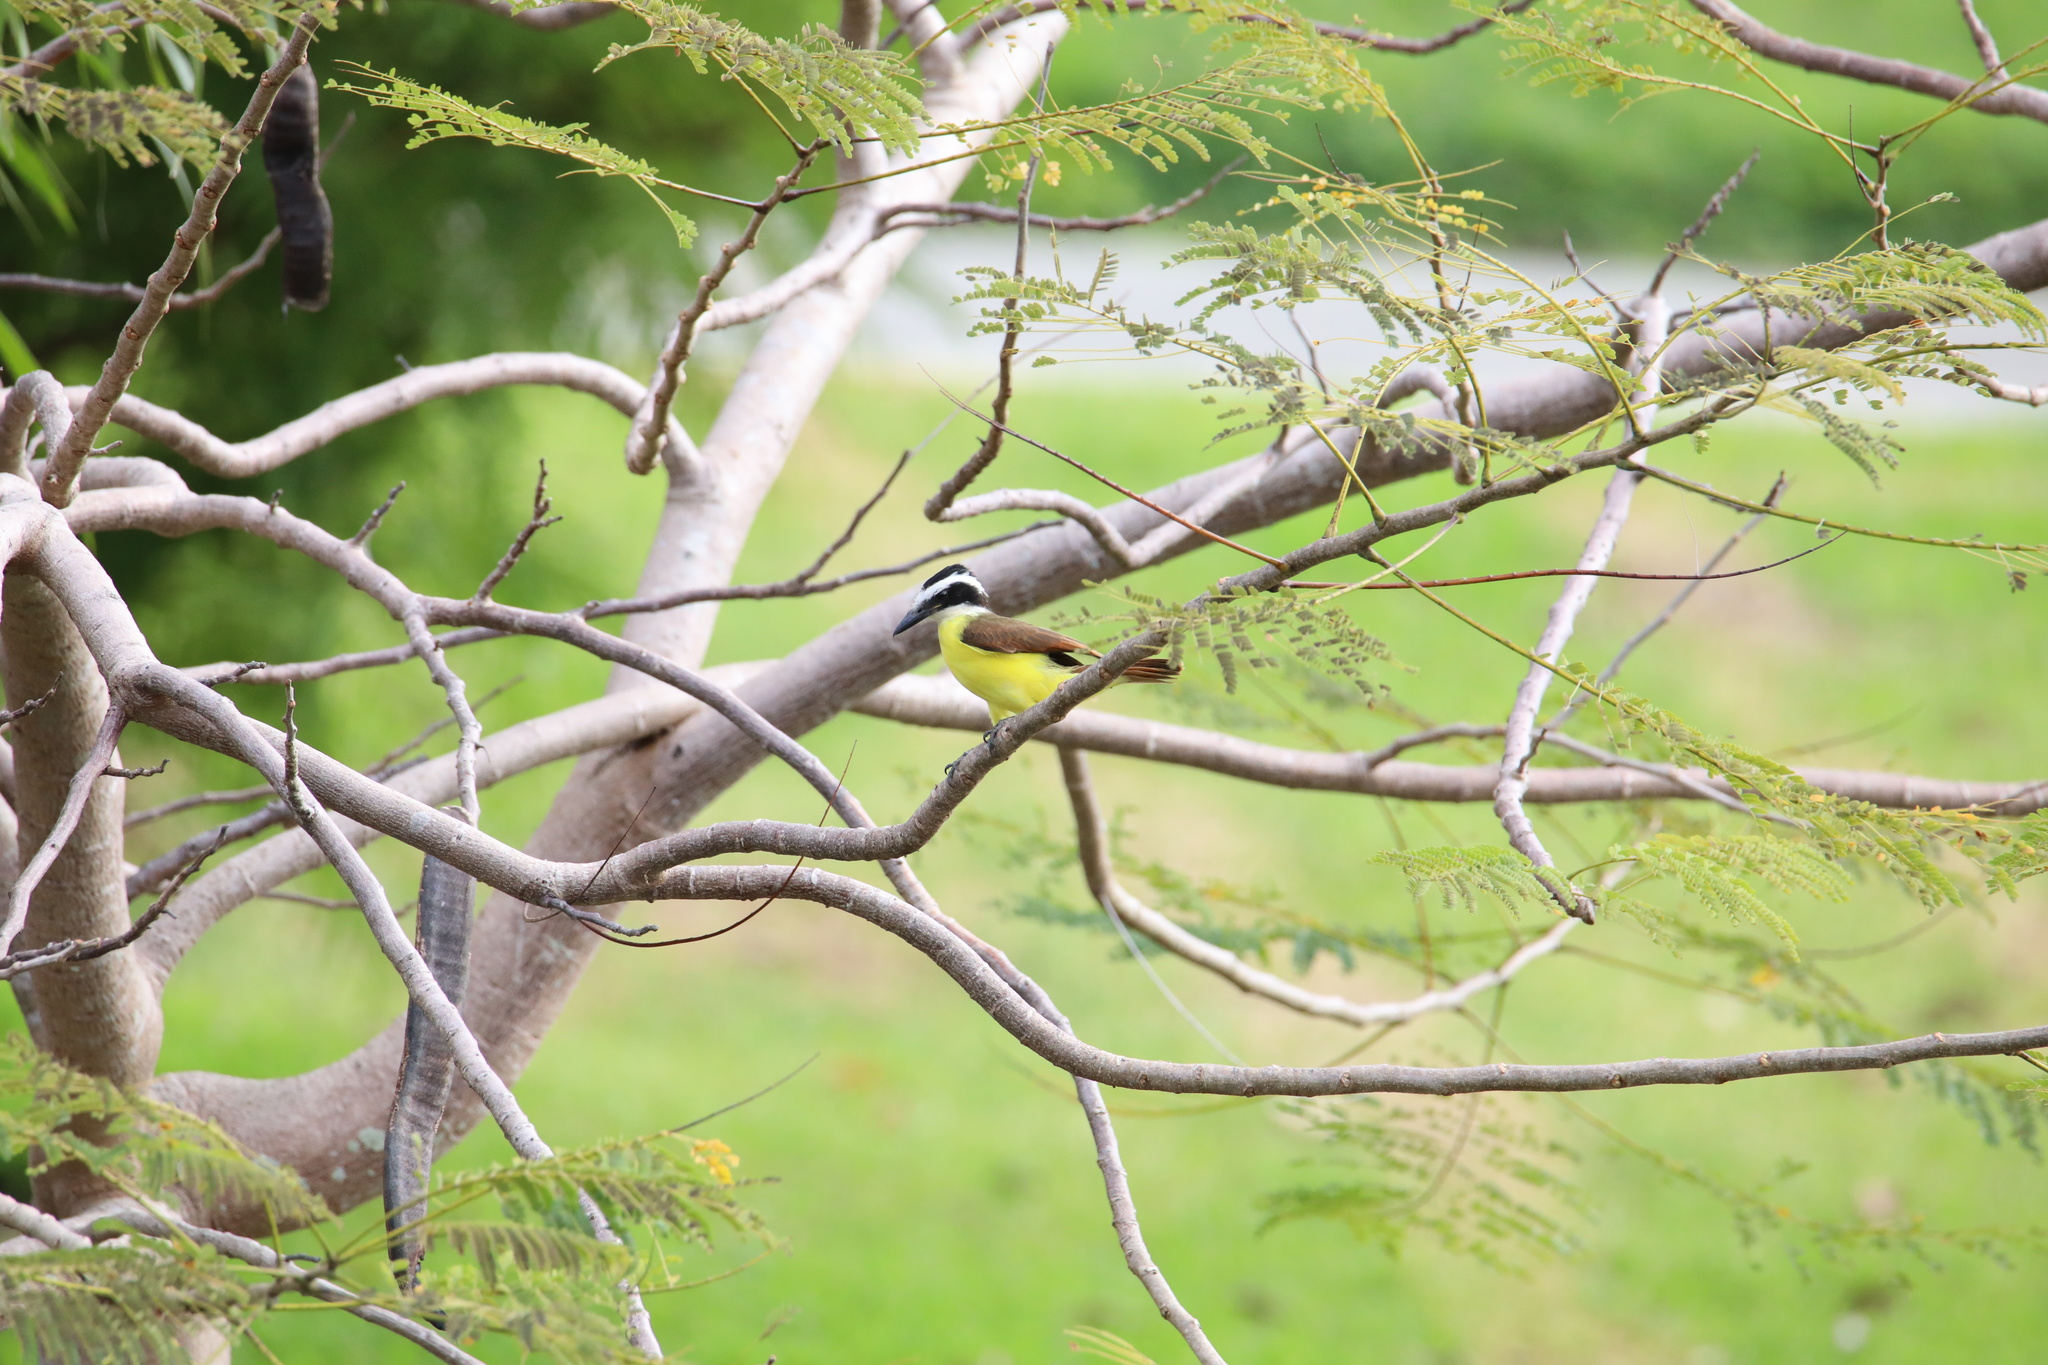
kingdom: Animalia
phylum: Chordata
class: Aves
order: Passeriformes
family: Tyrannidae
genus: Pitangus
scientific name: Pitangus sulphuratus
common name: Great kiskadee
